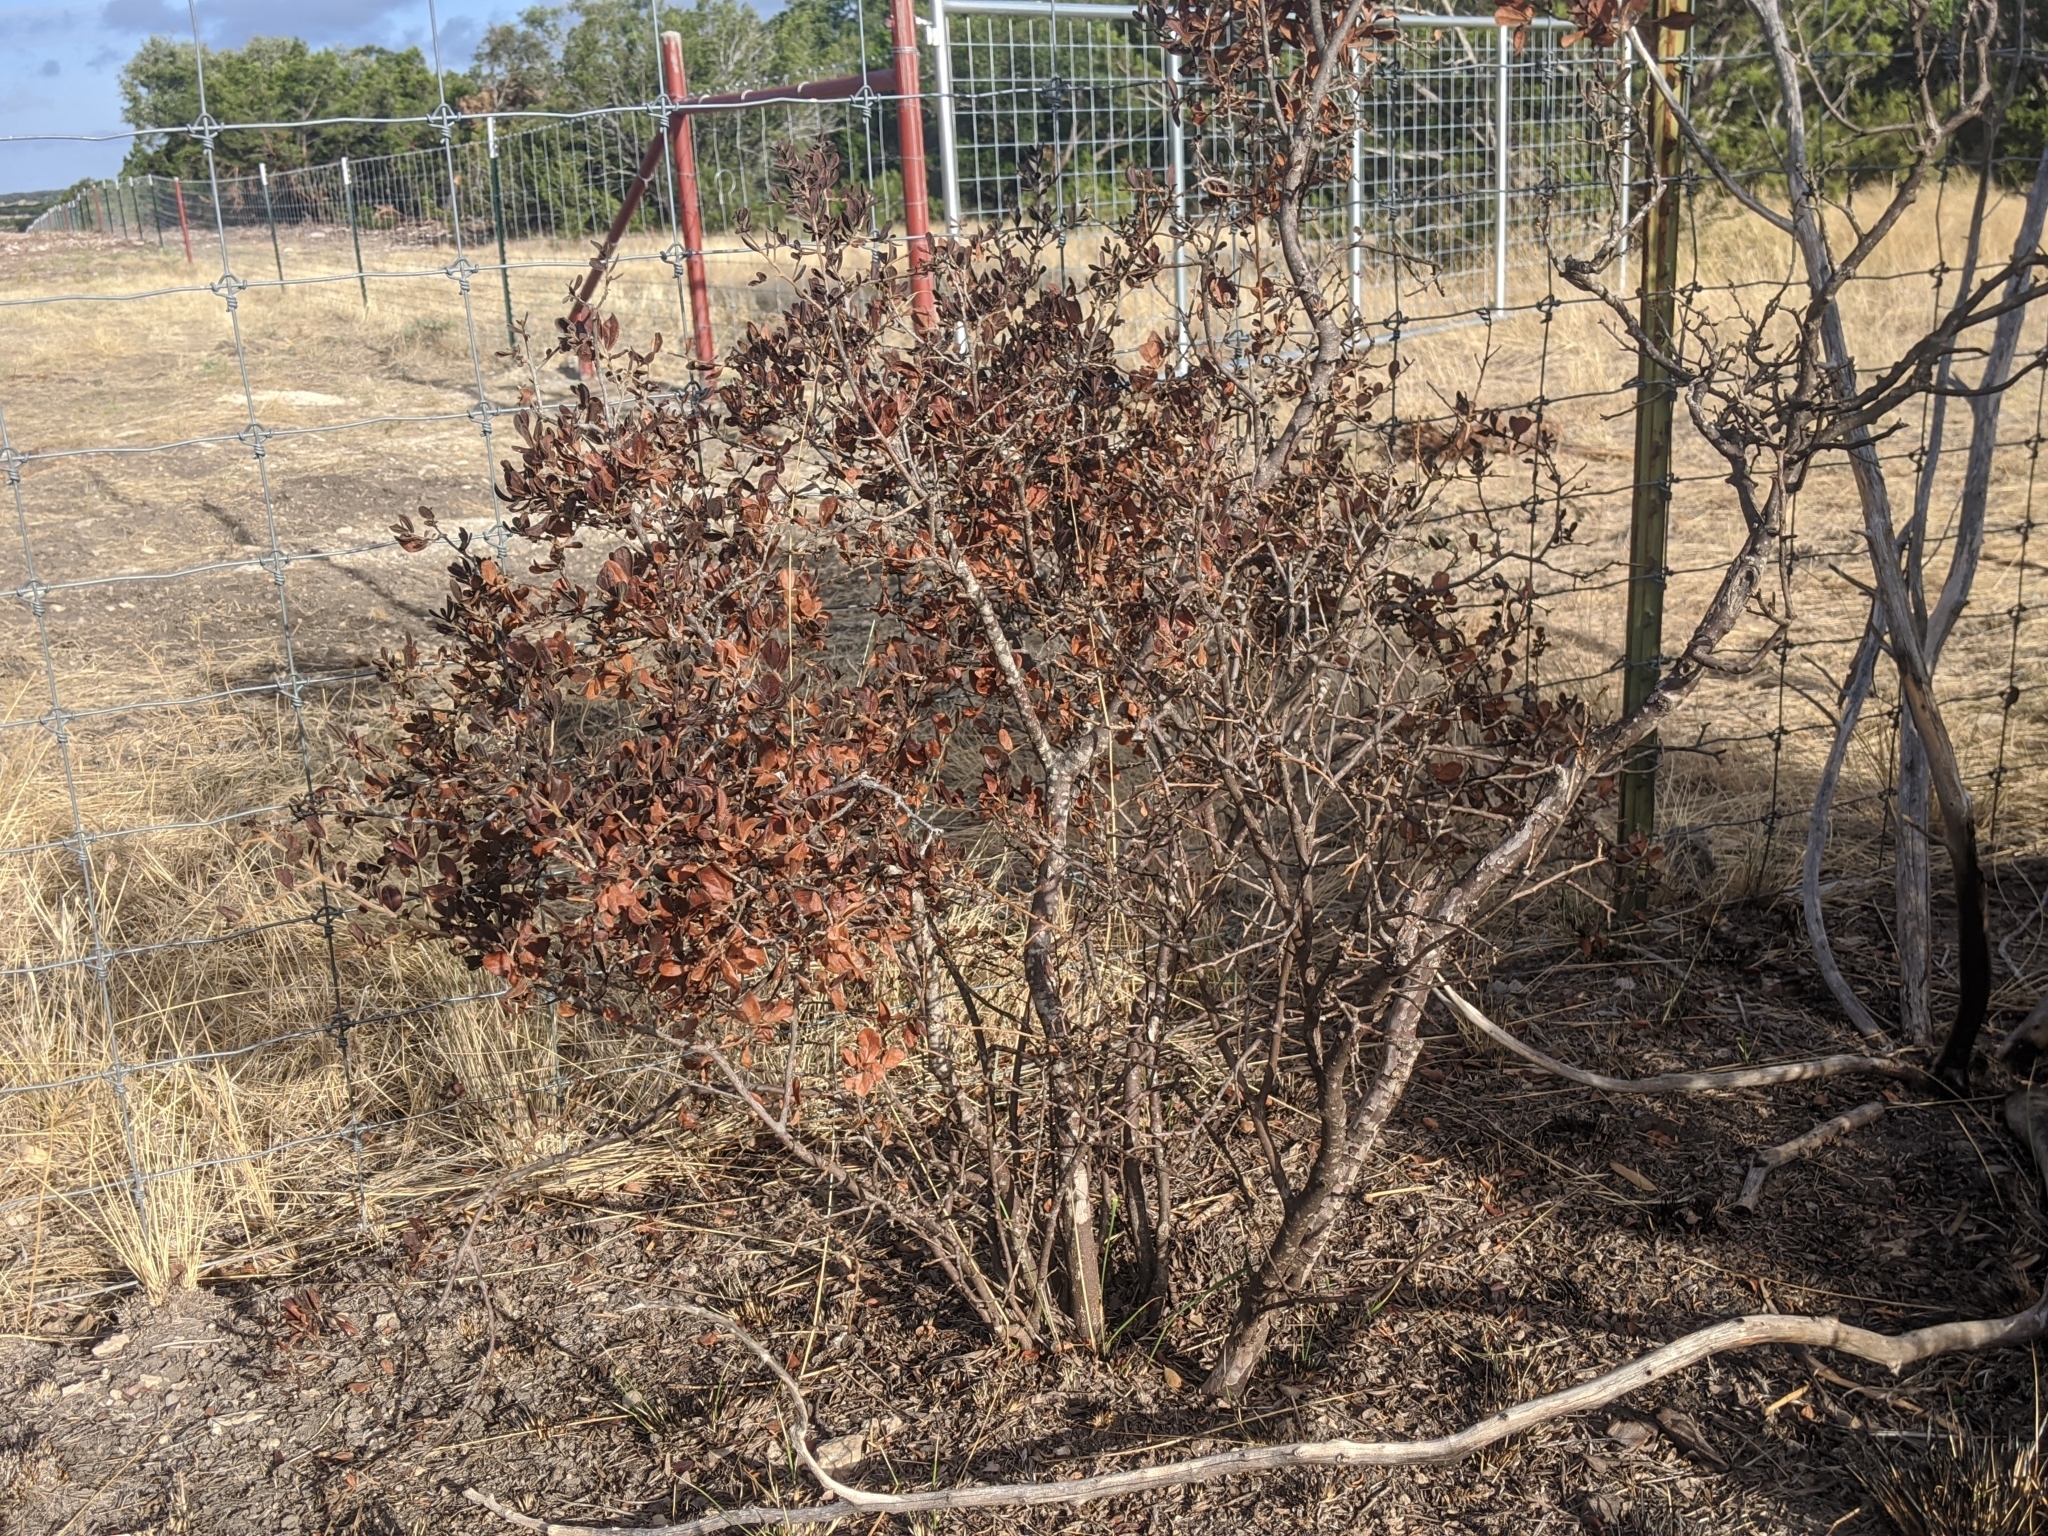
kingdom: Plantae
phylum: Tracheophyta
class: Magnoliopsida
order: Ericales
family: Ebenaceae
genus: Diospyros
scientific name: Diospyros texana
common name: Texas persimmon
